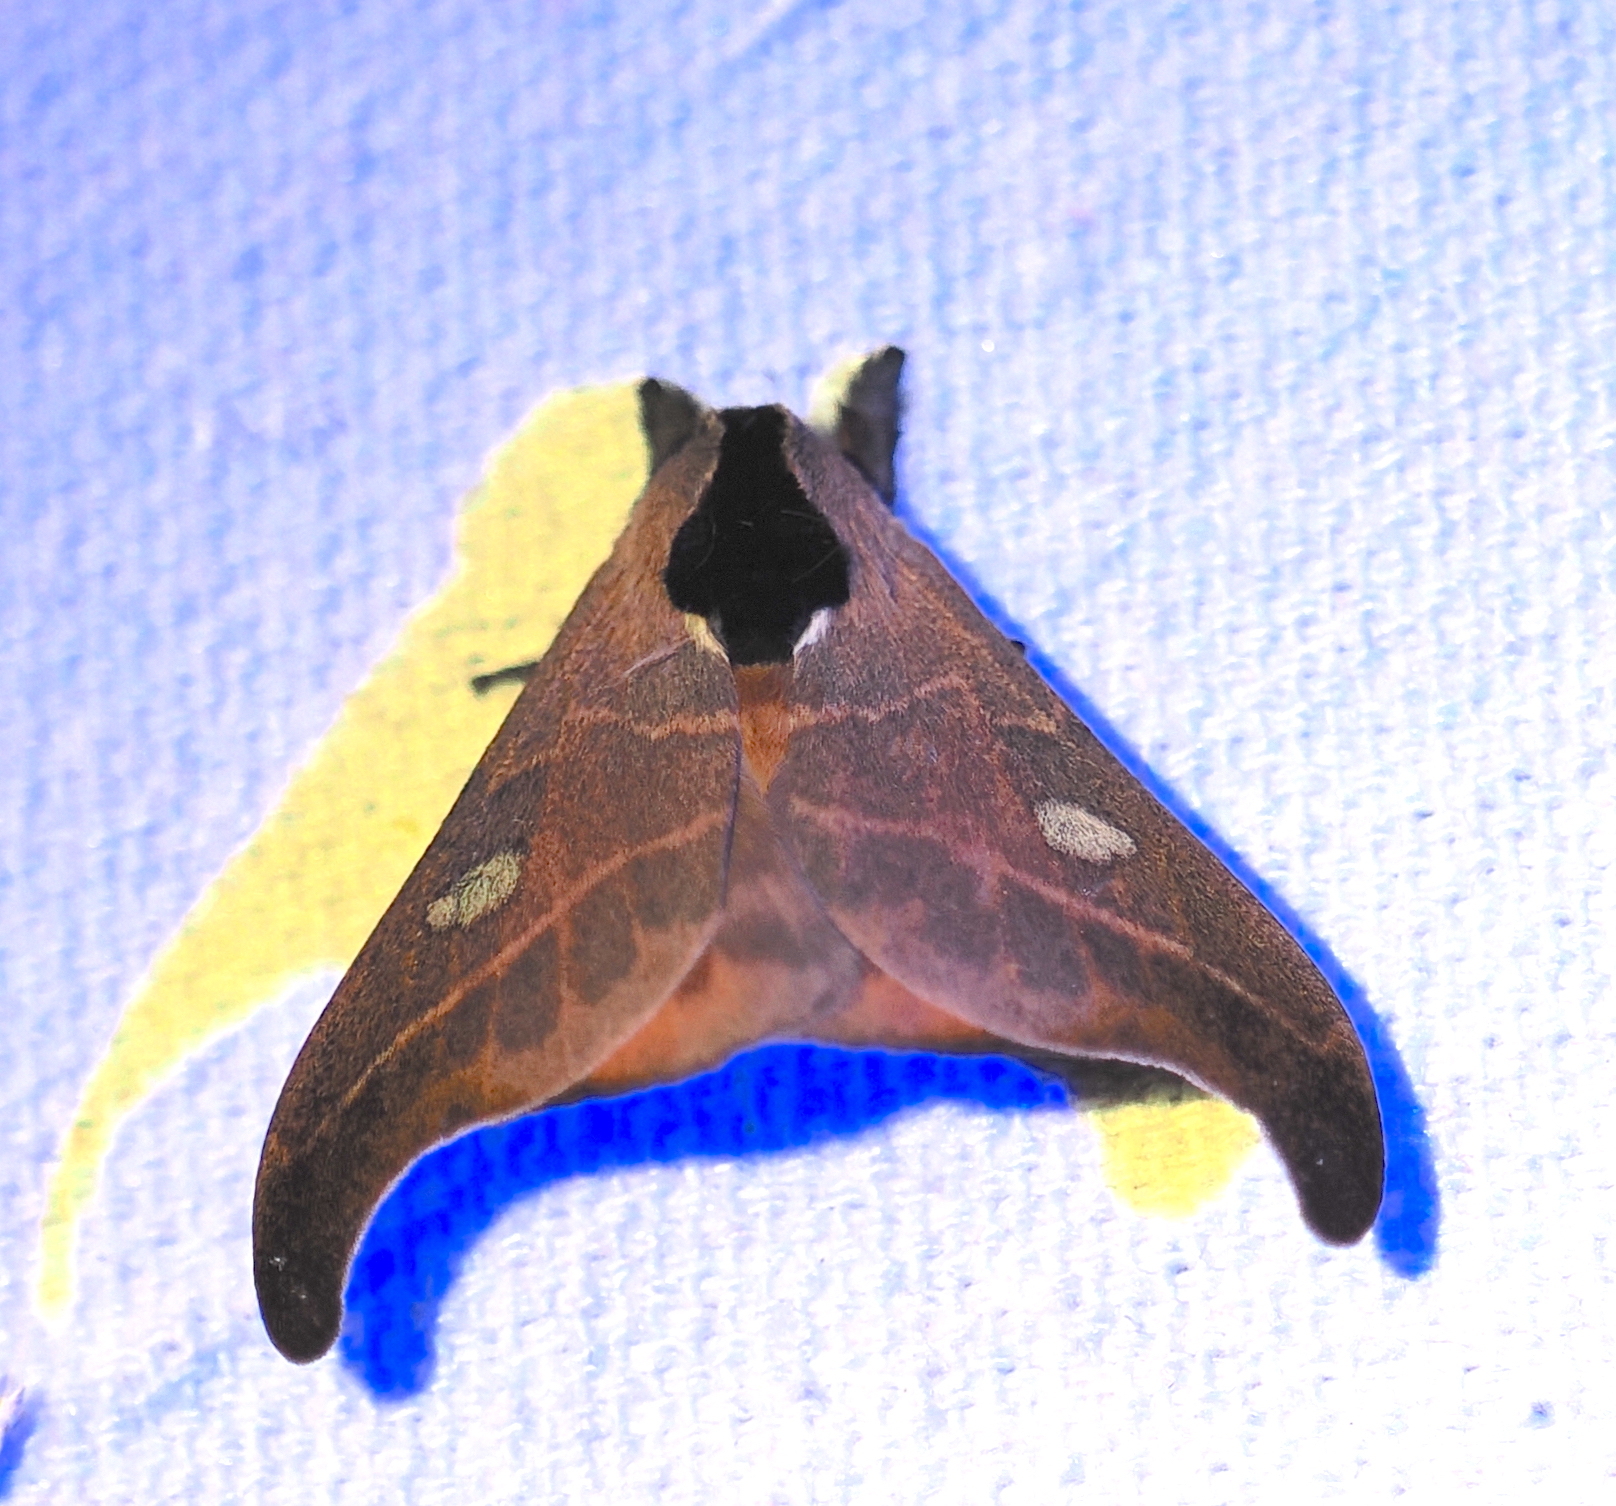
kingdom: Animalia
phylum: Arthropoda
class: Insecta
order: Lepidoptera
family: Saturniidae
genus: Hylesia
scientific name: Hylesia nanus
